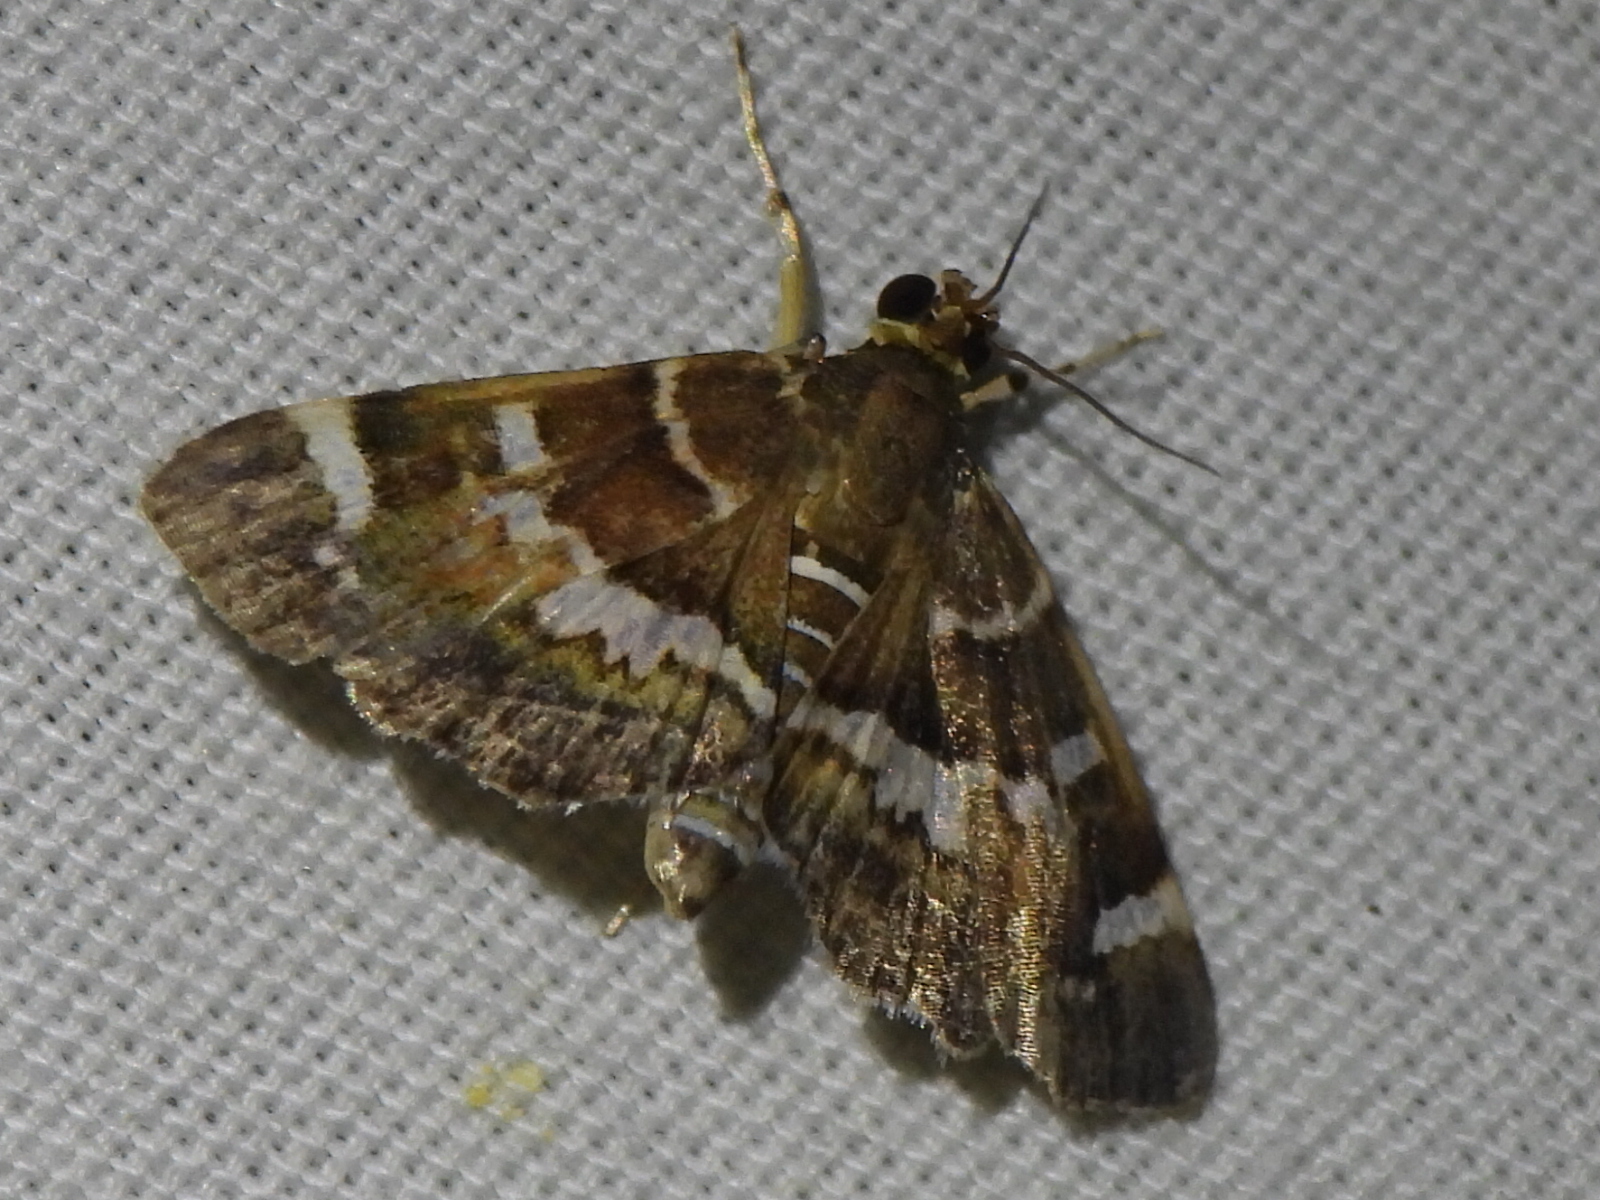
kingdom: Animalia
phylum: Arthropoda
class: Insecta
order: Lepidoptera
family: Crambidae
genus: Hymenia
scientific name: Hymenia perspectalis
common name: Spotted beet webworm
